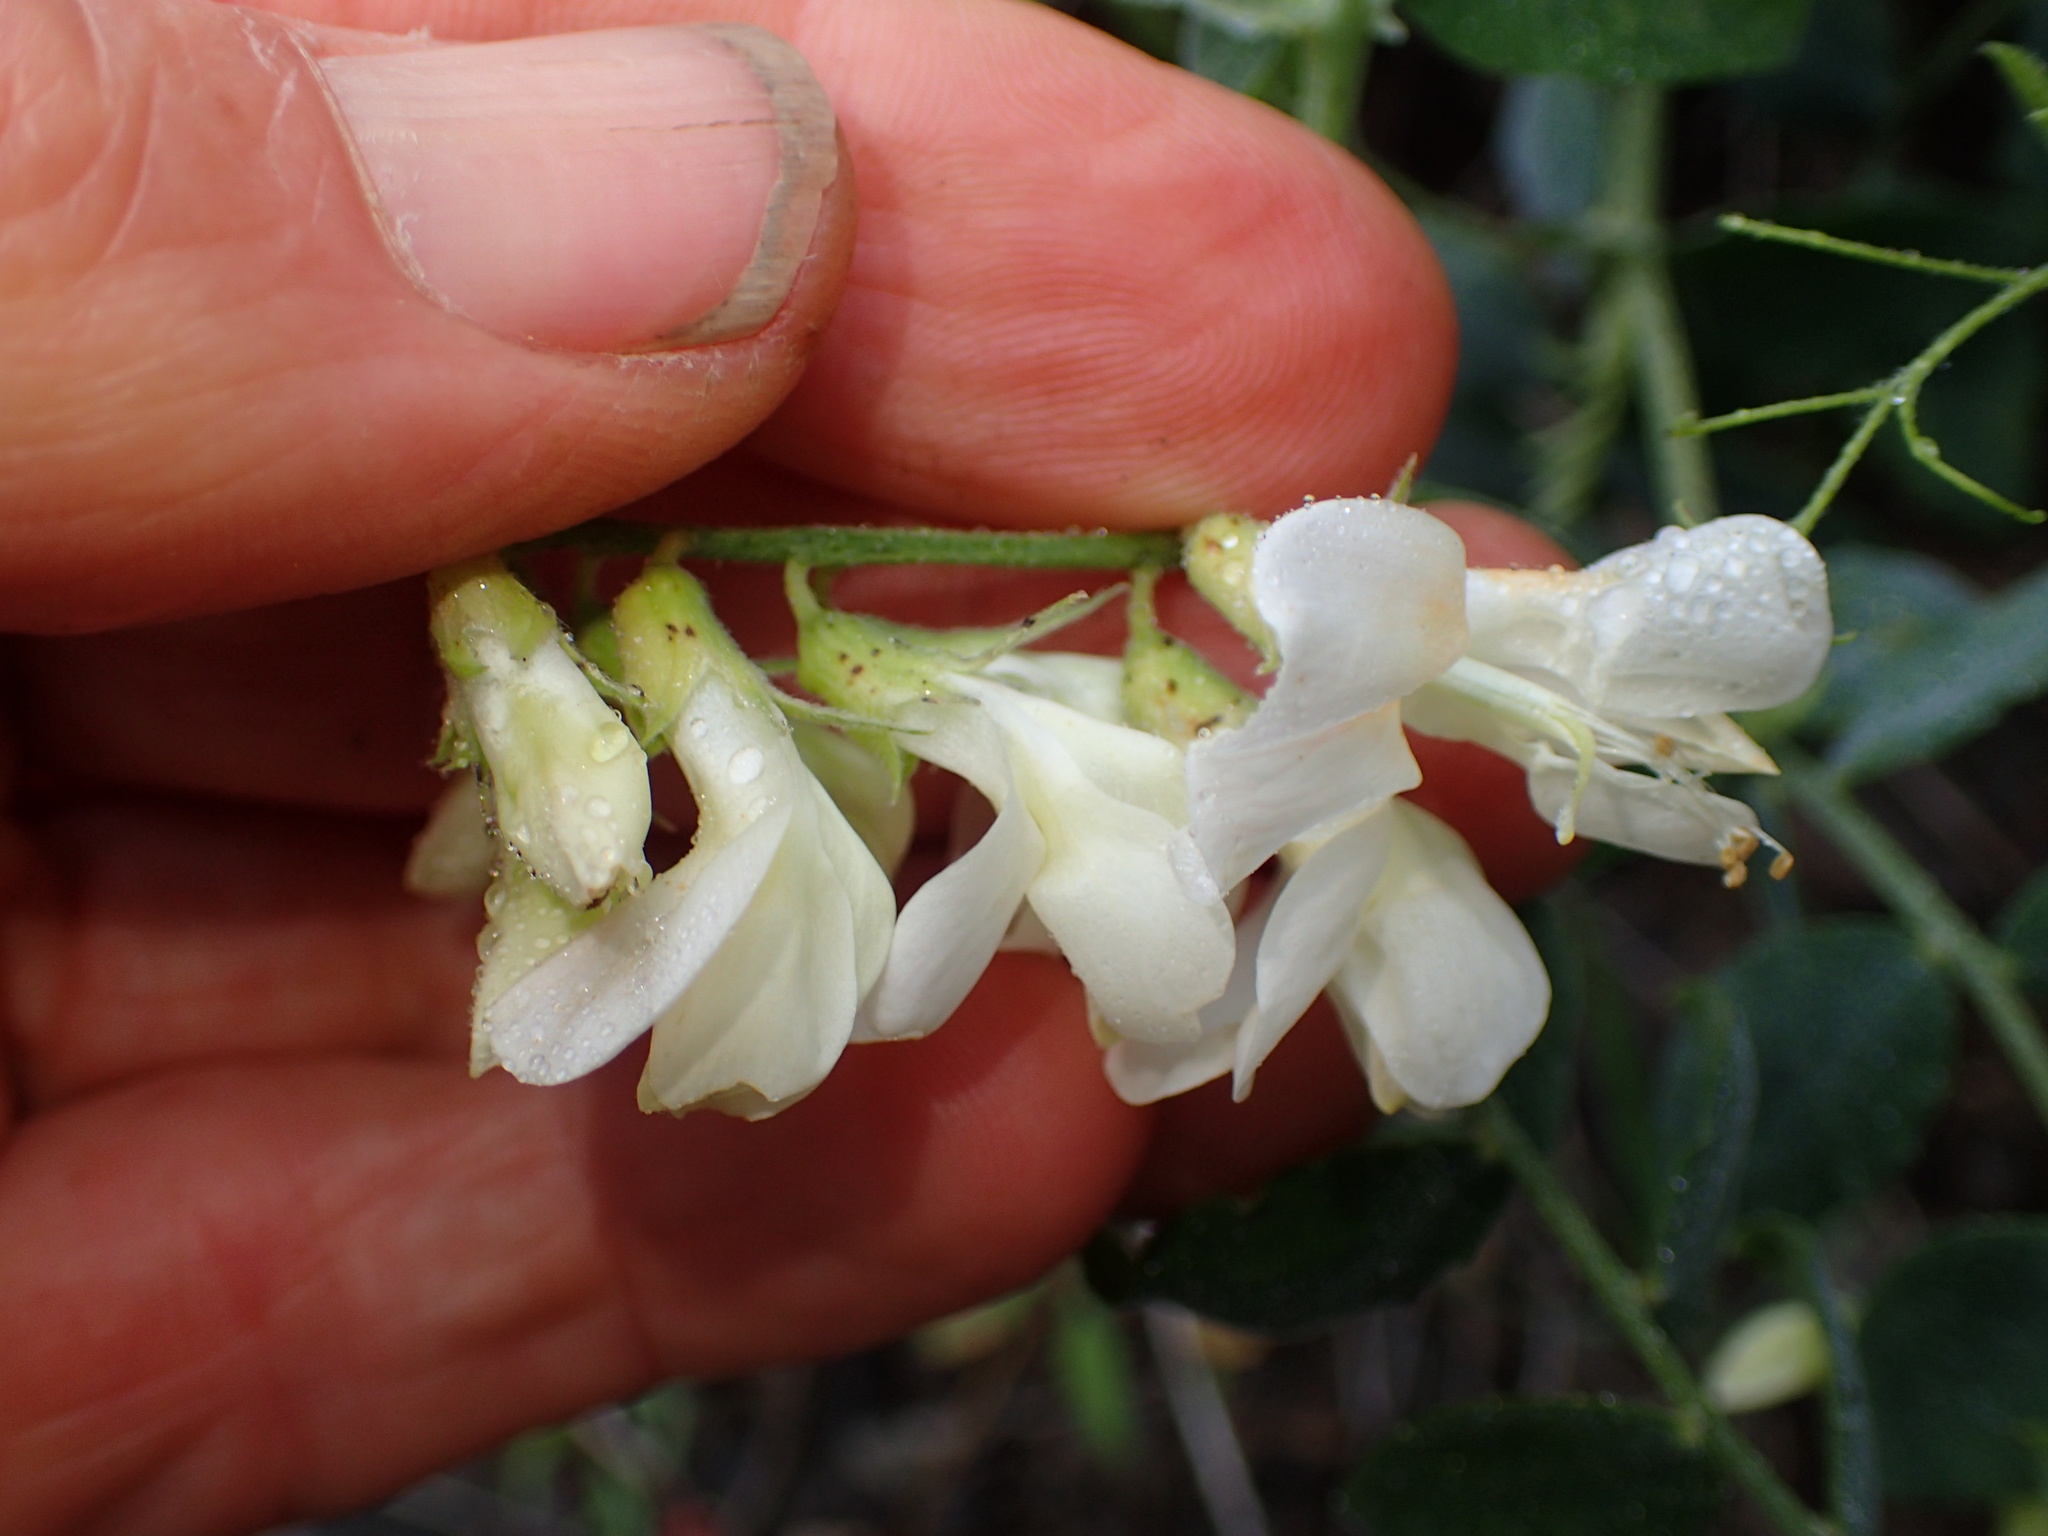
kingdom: Plantae
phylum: Tracheophyta
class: Magnoliopsida
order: Fabales
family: Fabaceae
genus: Lathyrus
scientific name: Lathyrus vestitus
